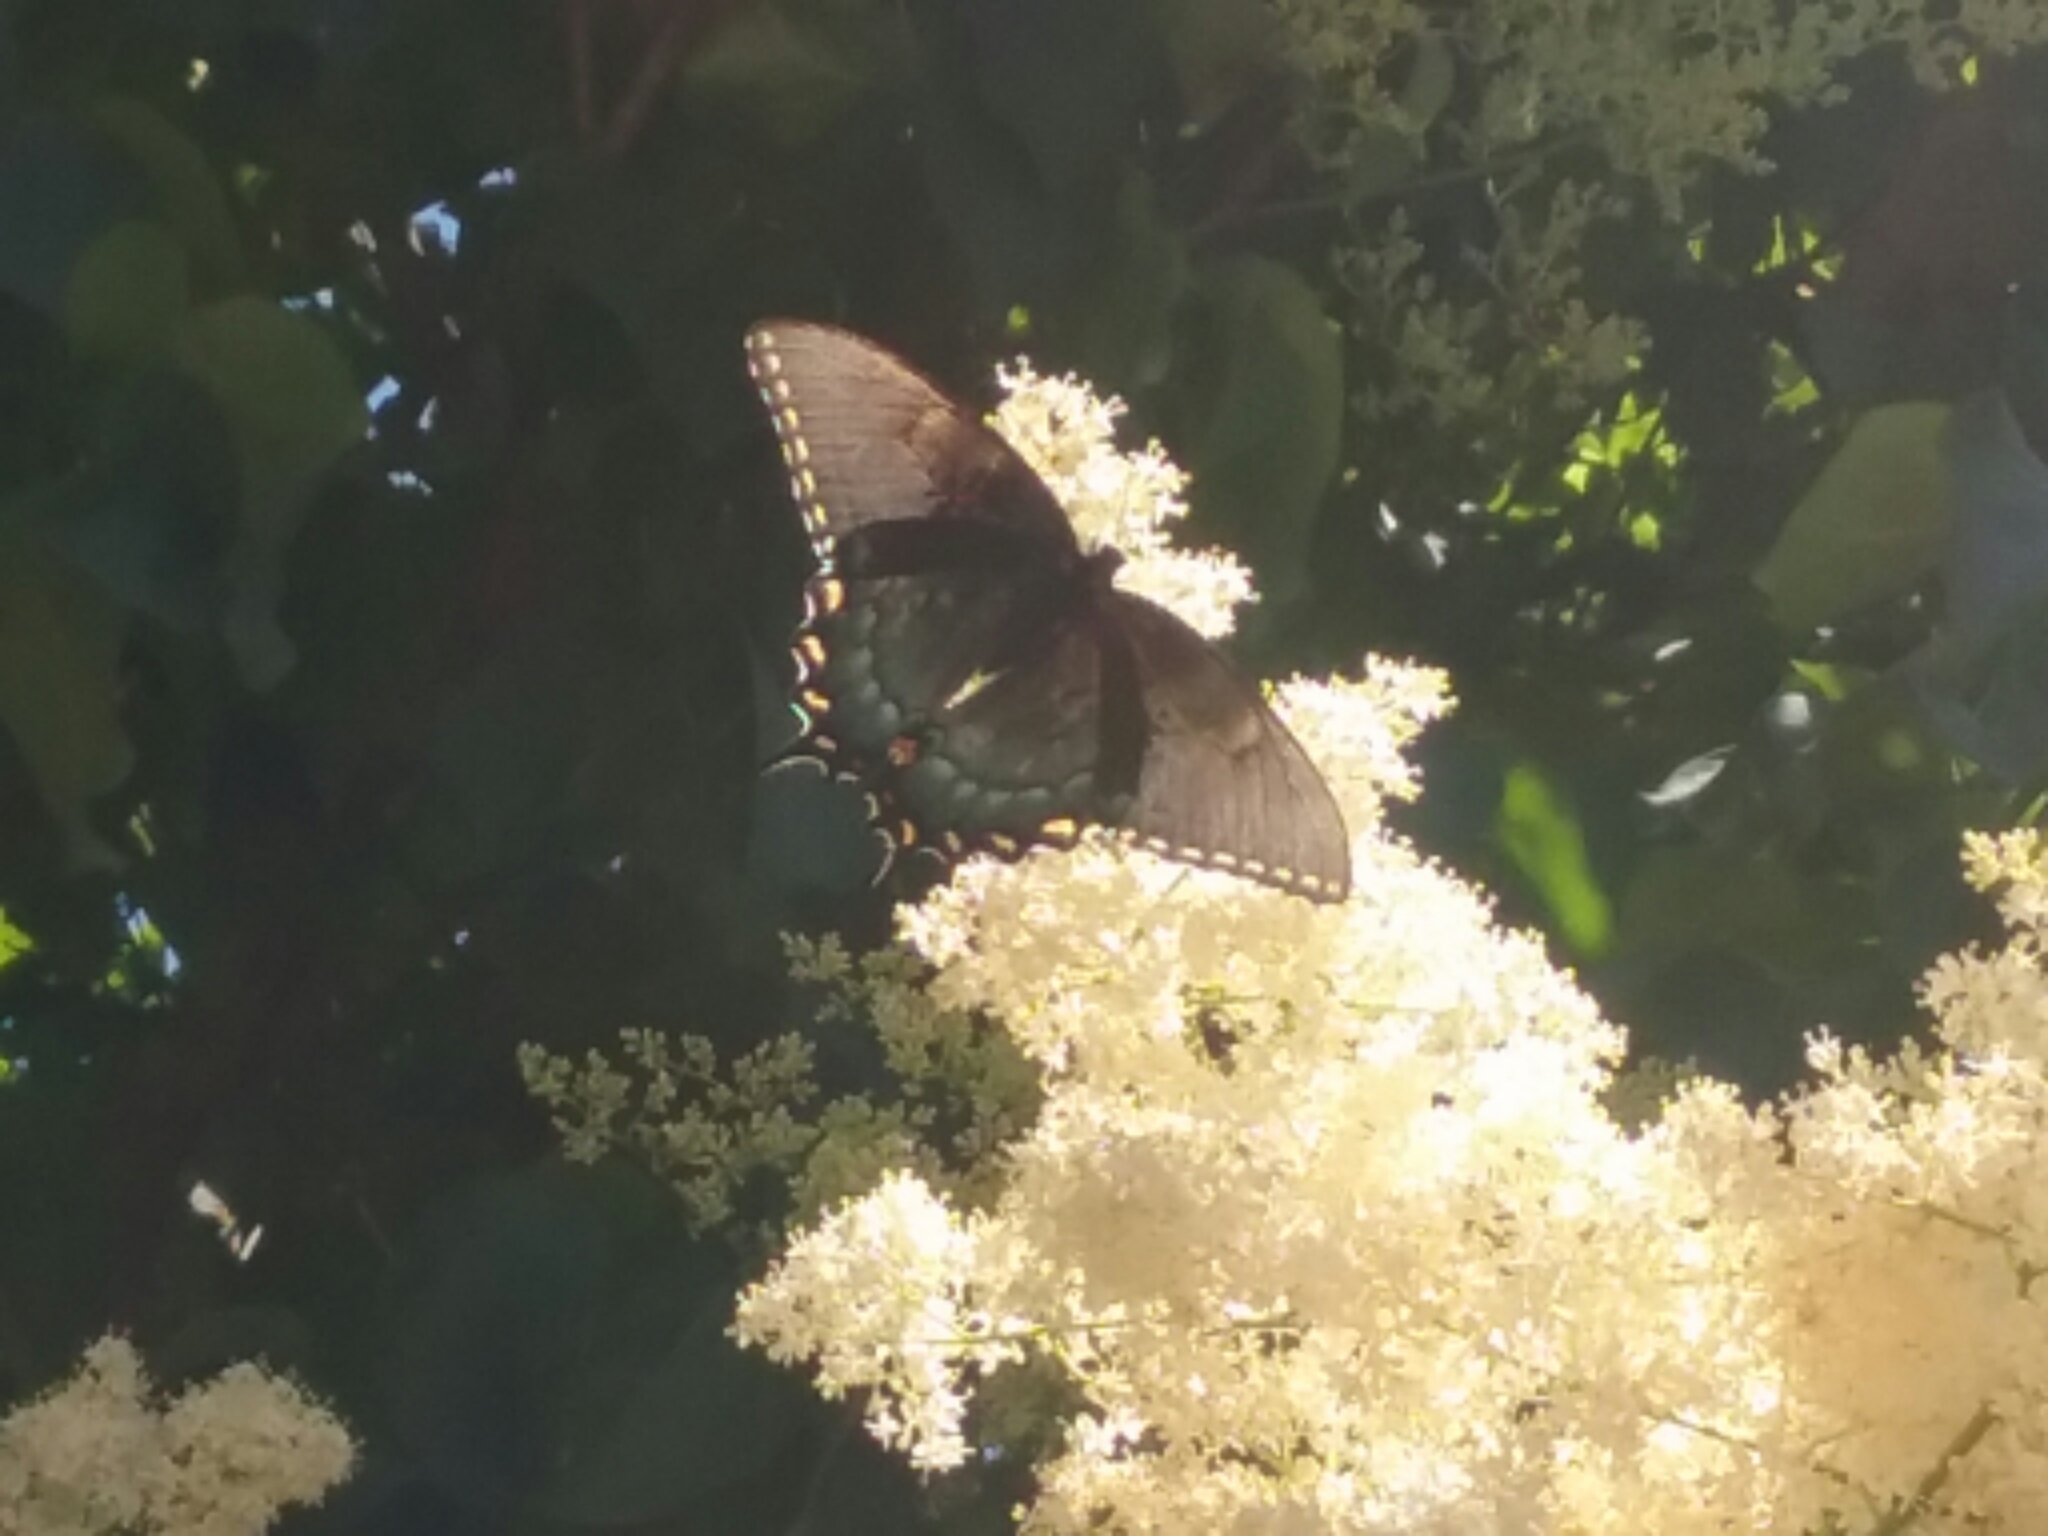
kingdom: Animalia
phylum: Arthropoda
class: Insecta
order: Lepidoptera
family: Papilionidae
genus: Papilio
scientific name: Papilio glaucus
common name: Tiger swallowtail
